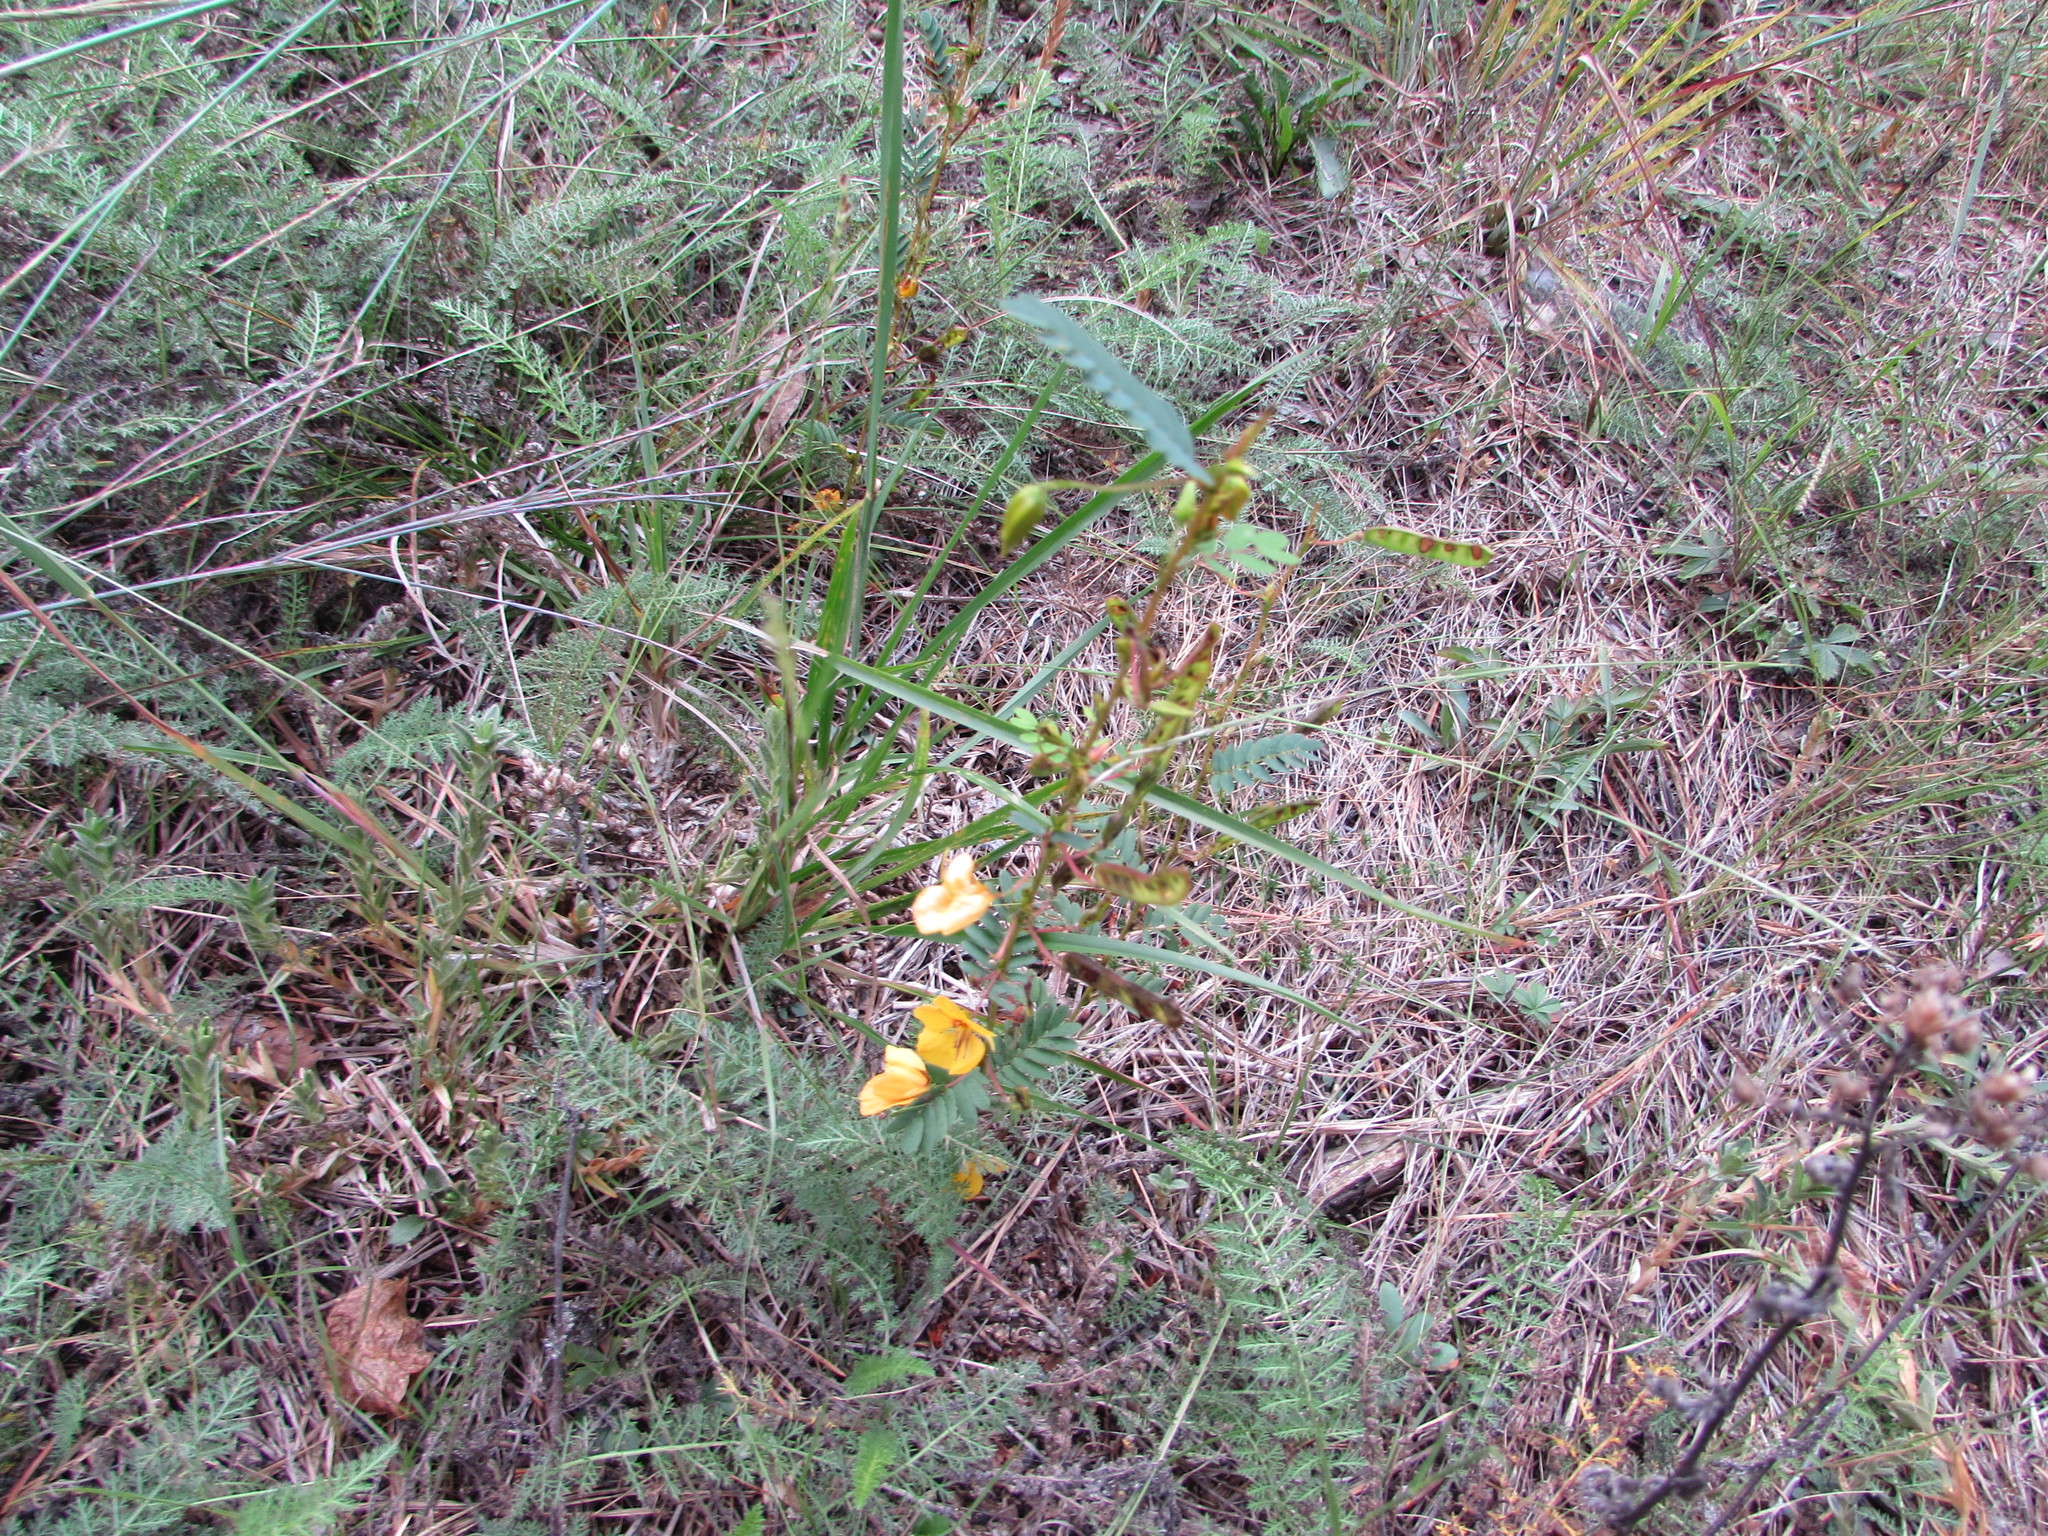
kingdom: Plantae
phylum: Tracheophyta
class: Magnoliopsida
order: Fabales
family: Fabaceae
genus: Chamaecrista
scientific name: Chamaecrista fasciculata
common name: Golden cassia
